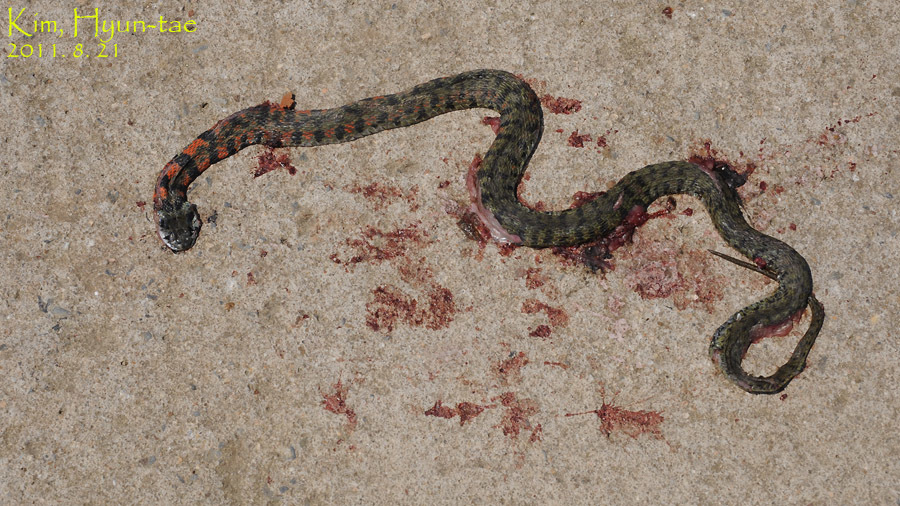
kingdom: Animalia
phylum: Chordata
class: Squamata
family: Colubridae
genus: Rhabdophis
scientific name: Rhabdophis tigrinus
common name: Tiger keelback
